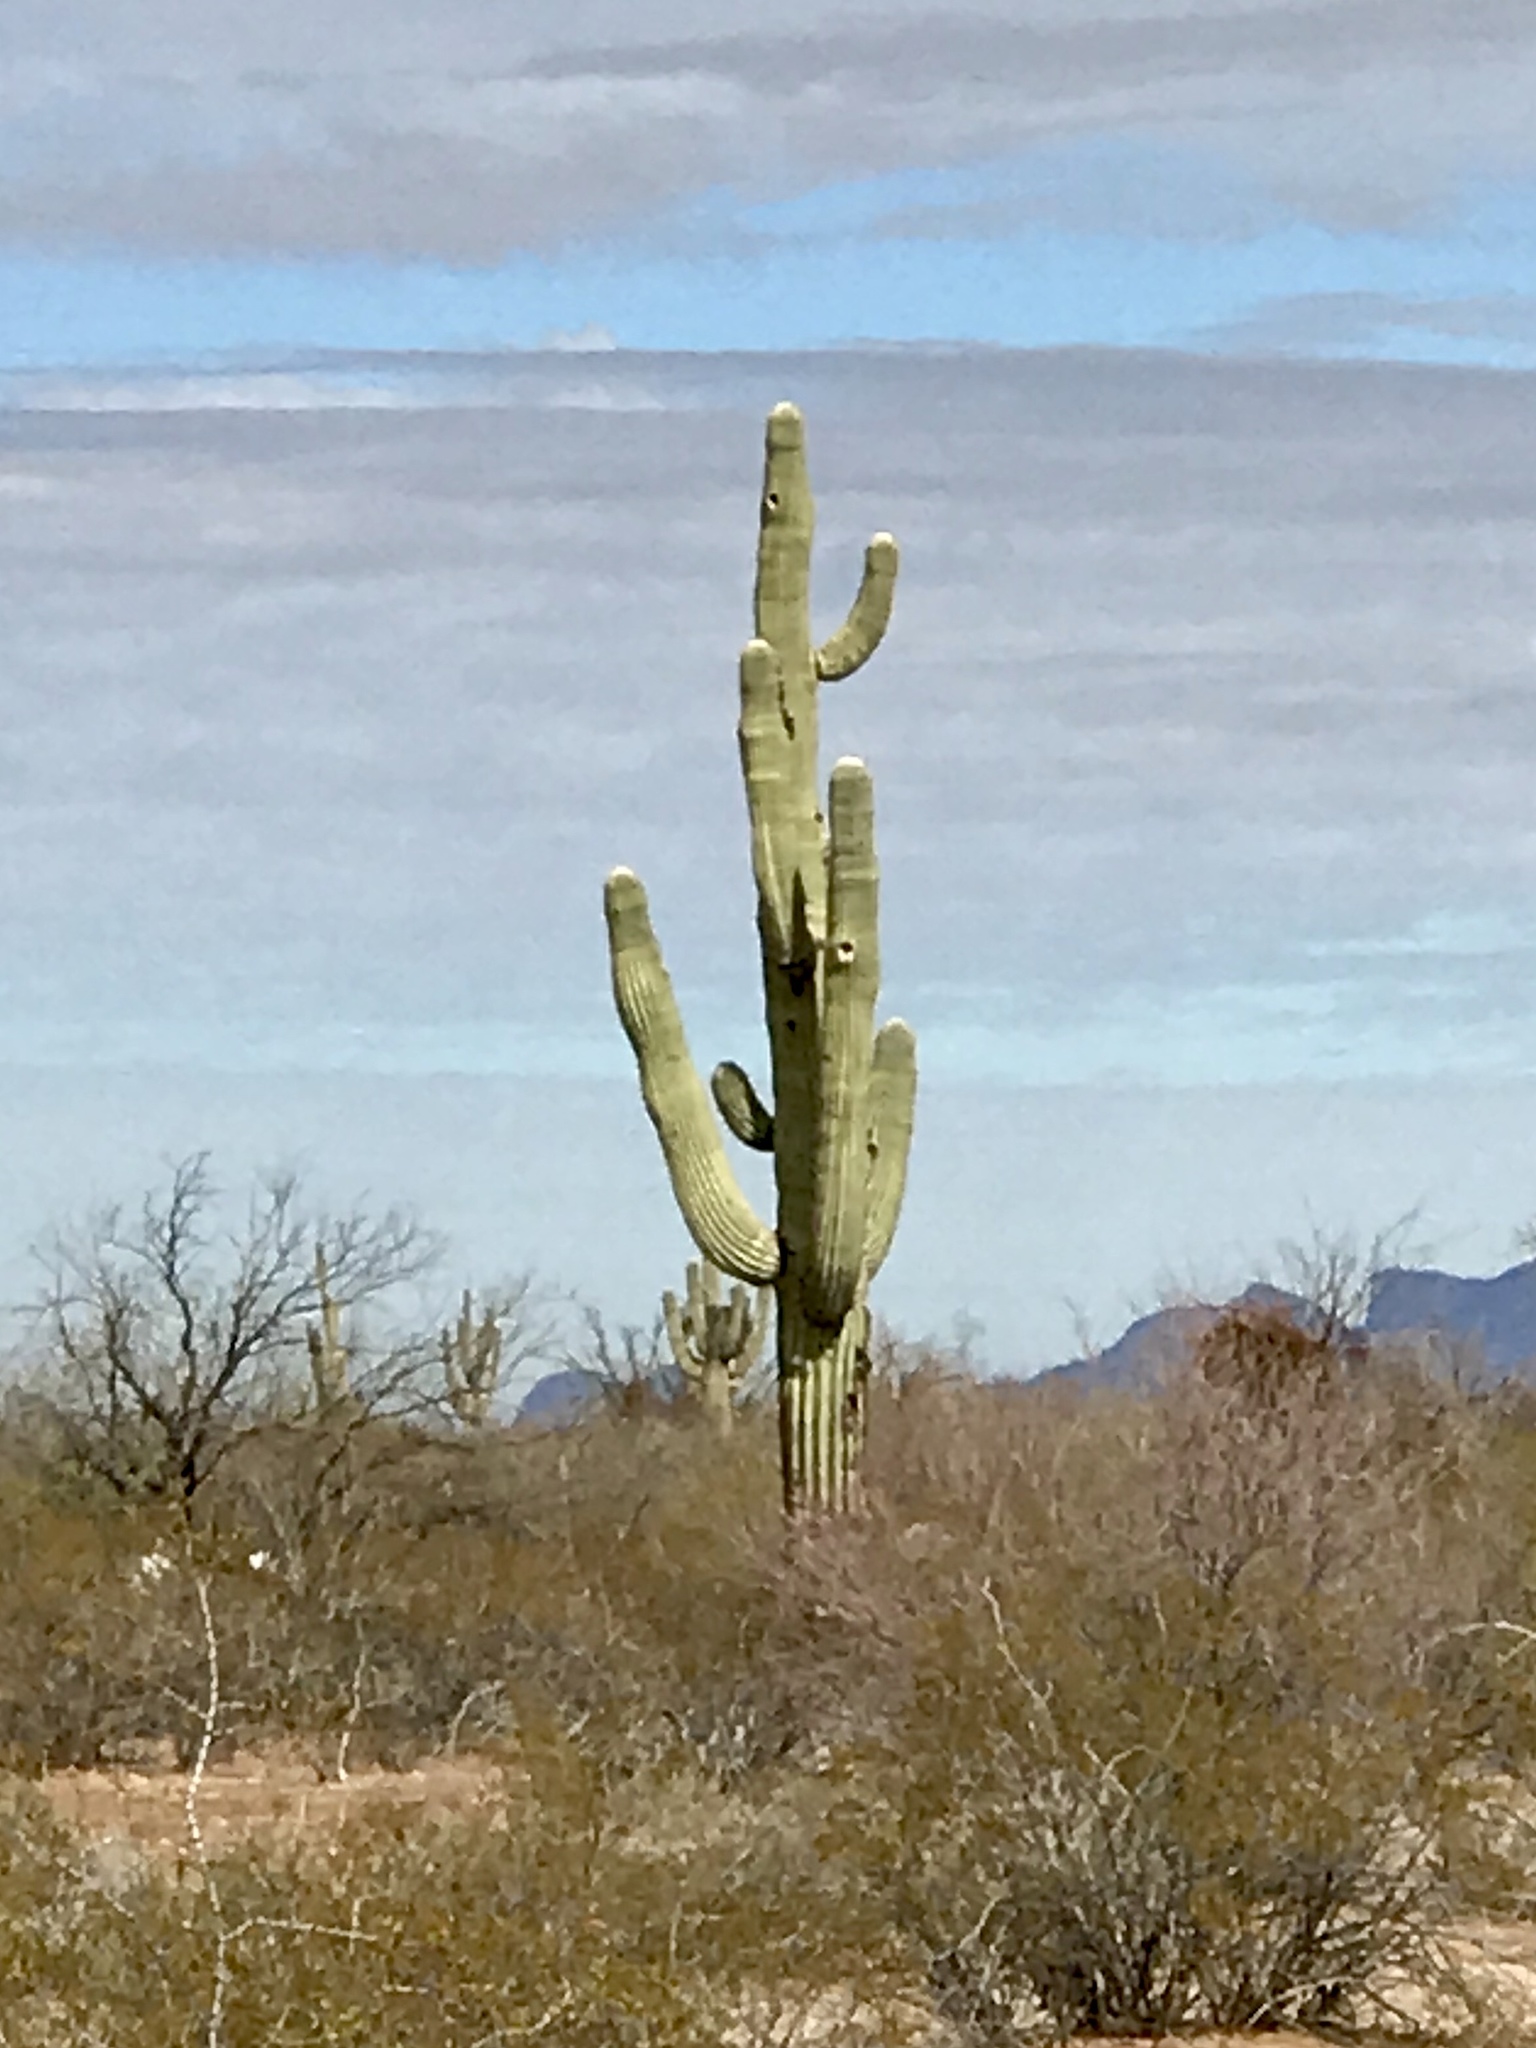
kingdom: Plantae
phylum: Tracheophyta
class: Magnoliopsida
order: Caryophyllales
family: Cactaceae
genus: Carnegiea
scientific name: Carnegiea gigantea
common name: Saguaro
